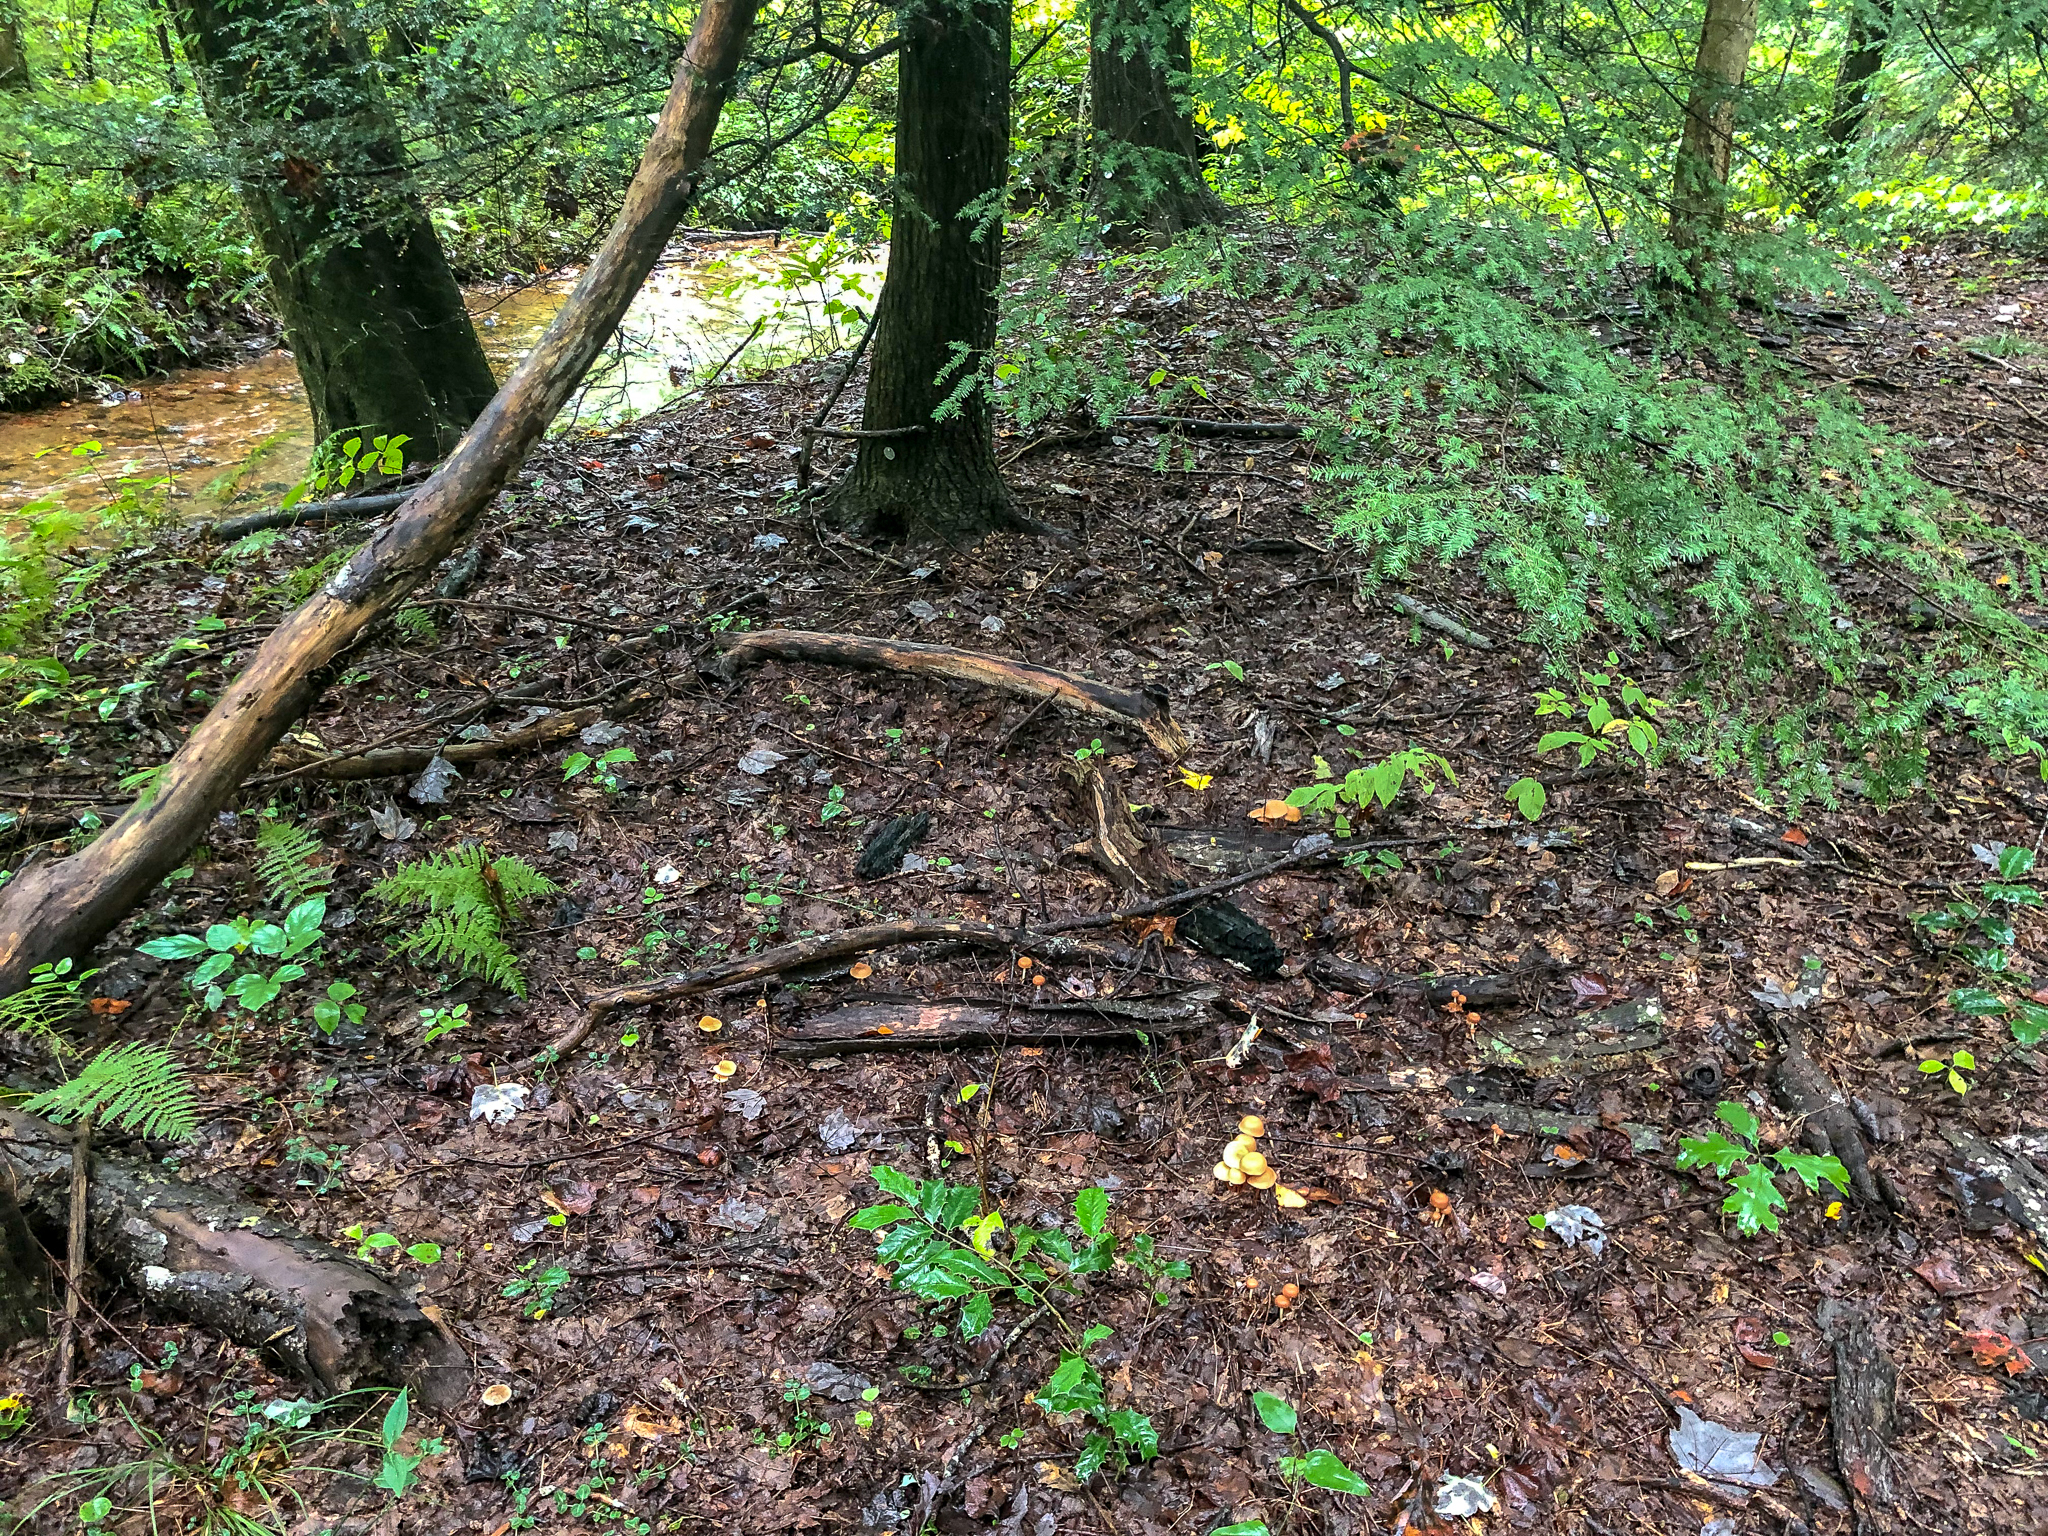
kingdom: Fungi
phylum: Basidiomycota
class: Agaricomycetes
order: Agaricales
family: Omphalotaceae
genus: Gymnopus
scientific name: Gymnopus dryophilus
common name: Penny top
